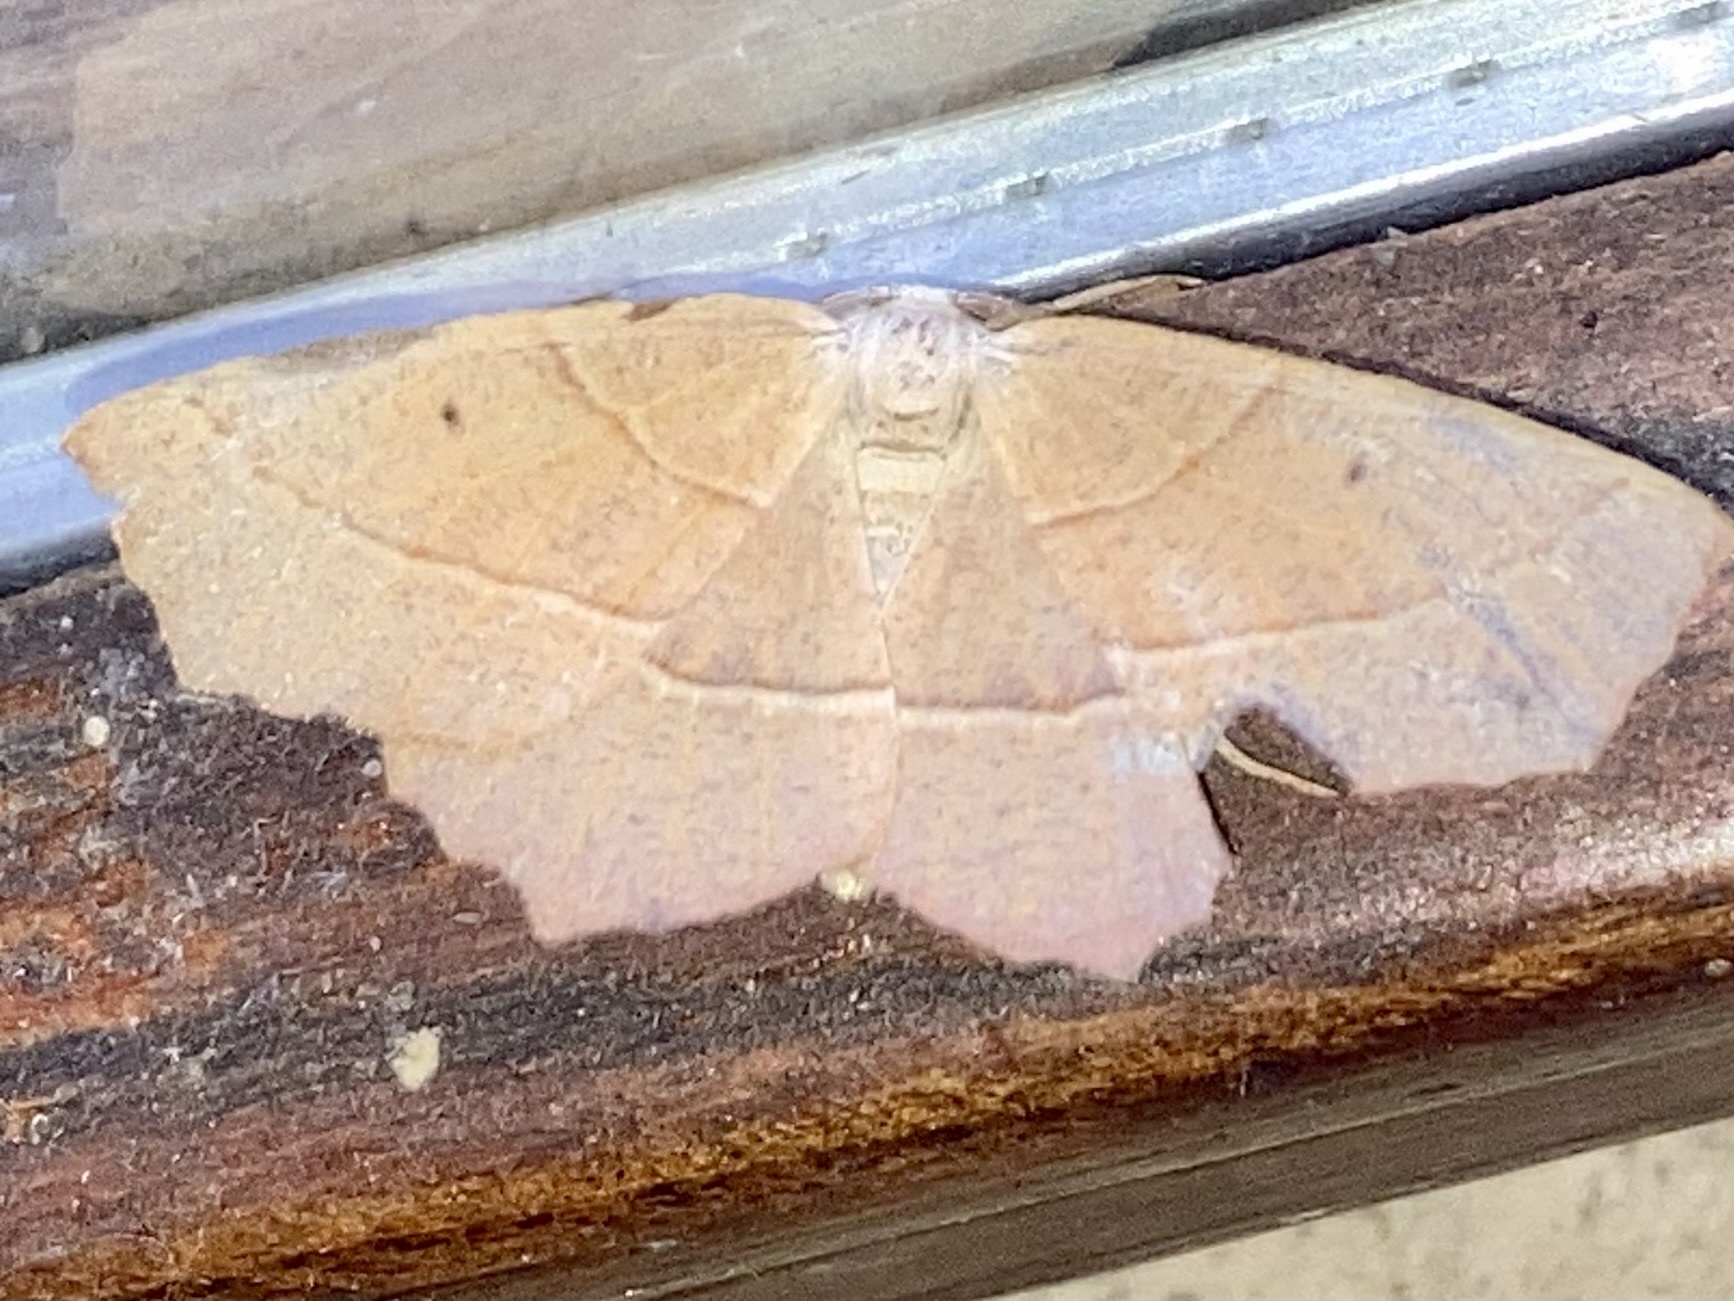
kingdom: Animalia
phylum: Arthropoda
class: Insecta
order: Lepidoptera
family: Geometridae
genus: Gerinia
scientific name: Gerinia honoraria
